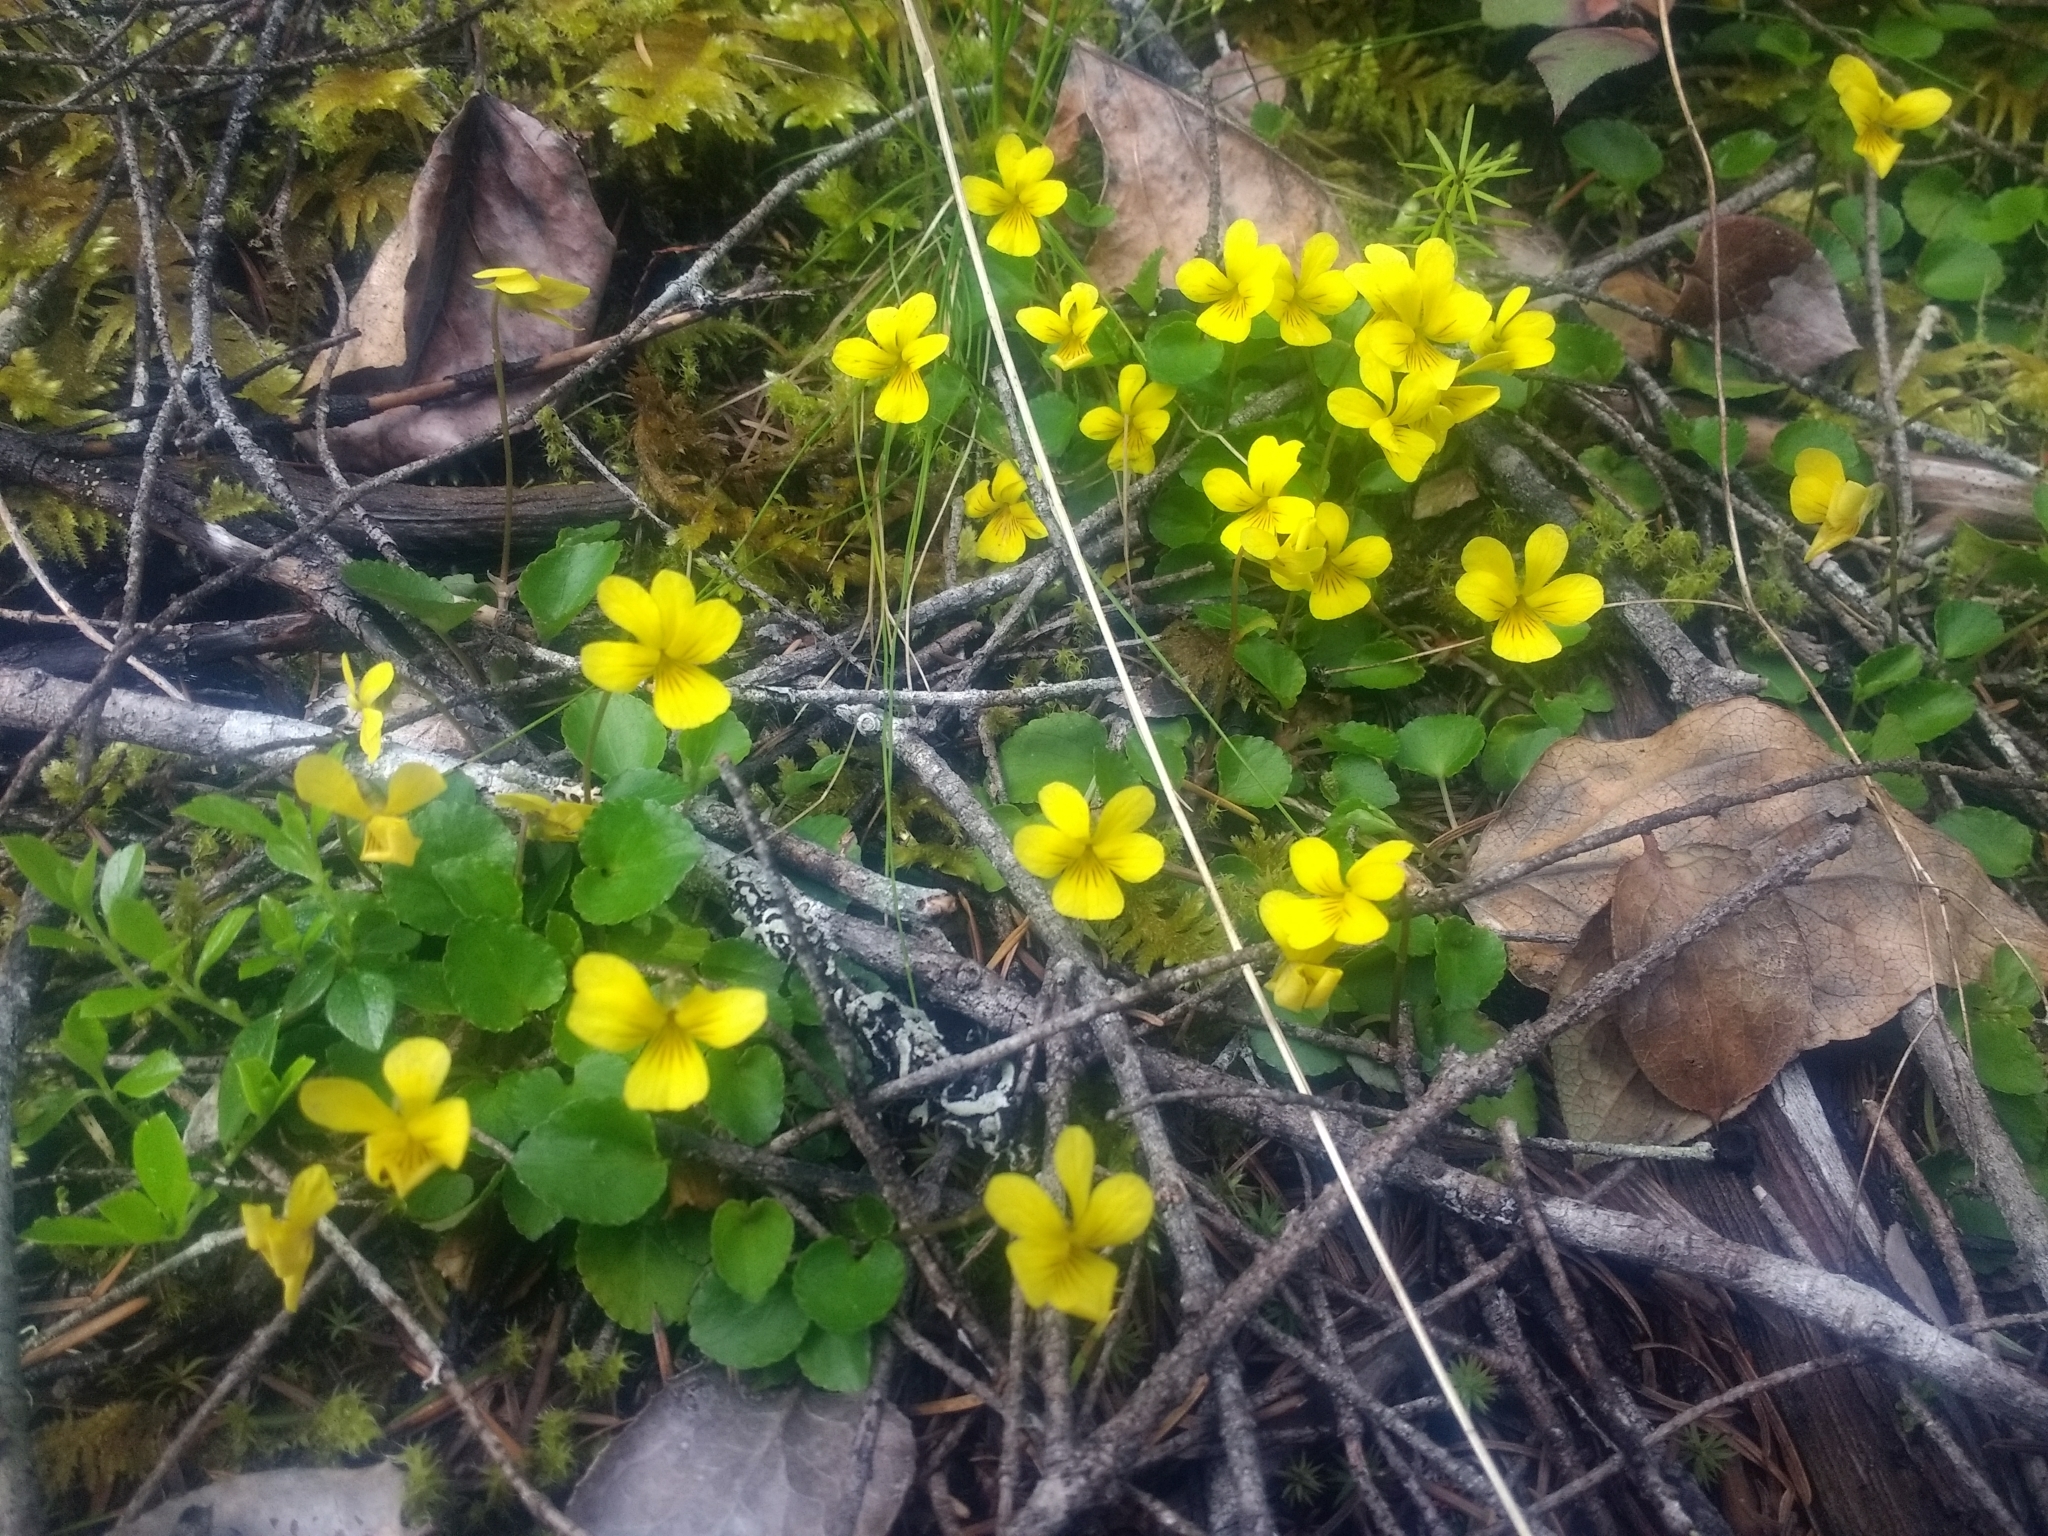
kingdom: Plantae
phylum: Tracheophyta
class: Magnoliopsida
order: Malpighiales
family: Violaceae
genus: Viola
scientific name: Viola sempervirens
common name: Evergreen violet
